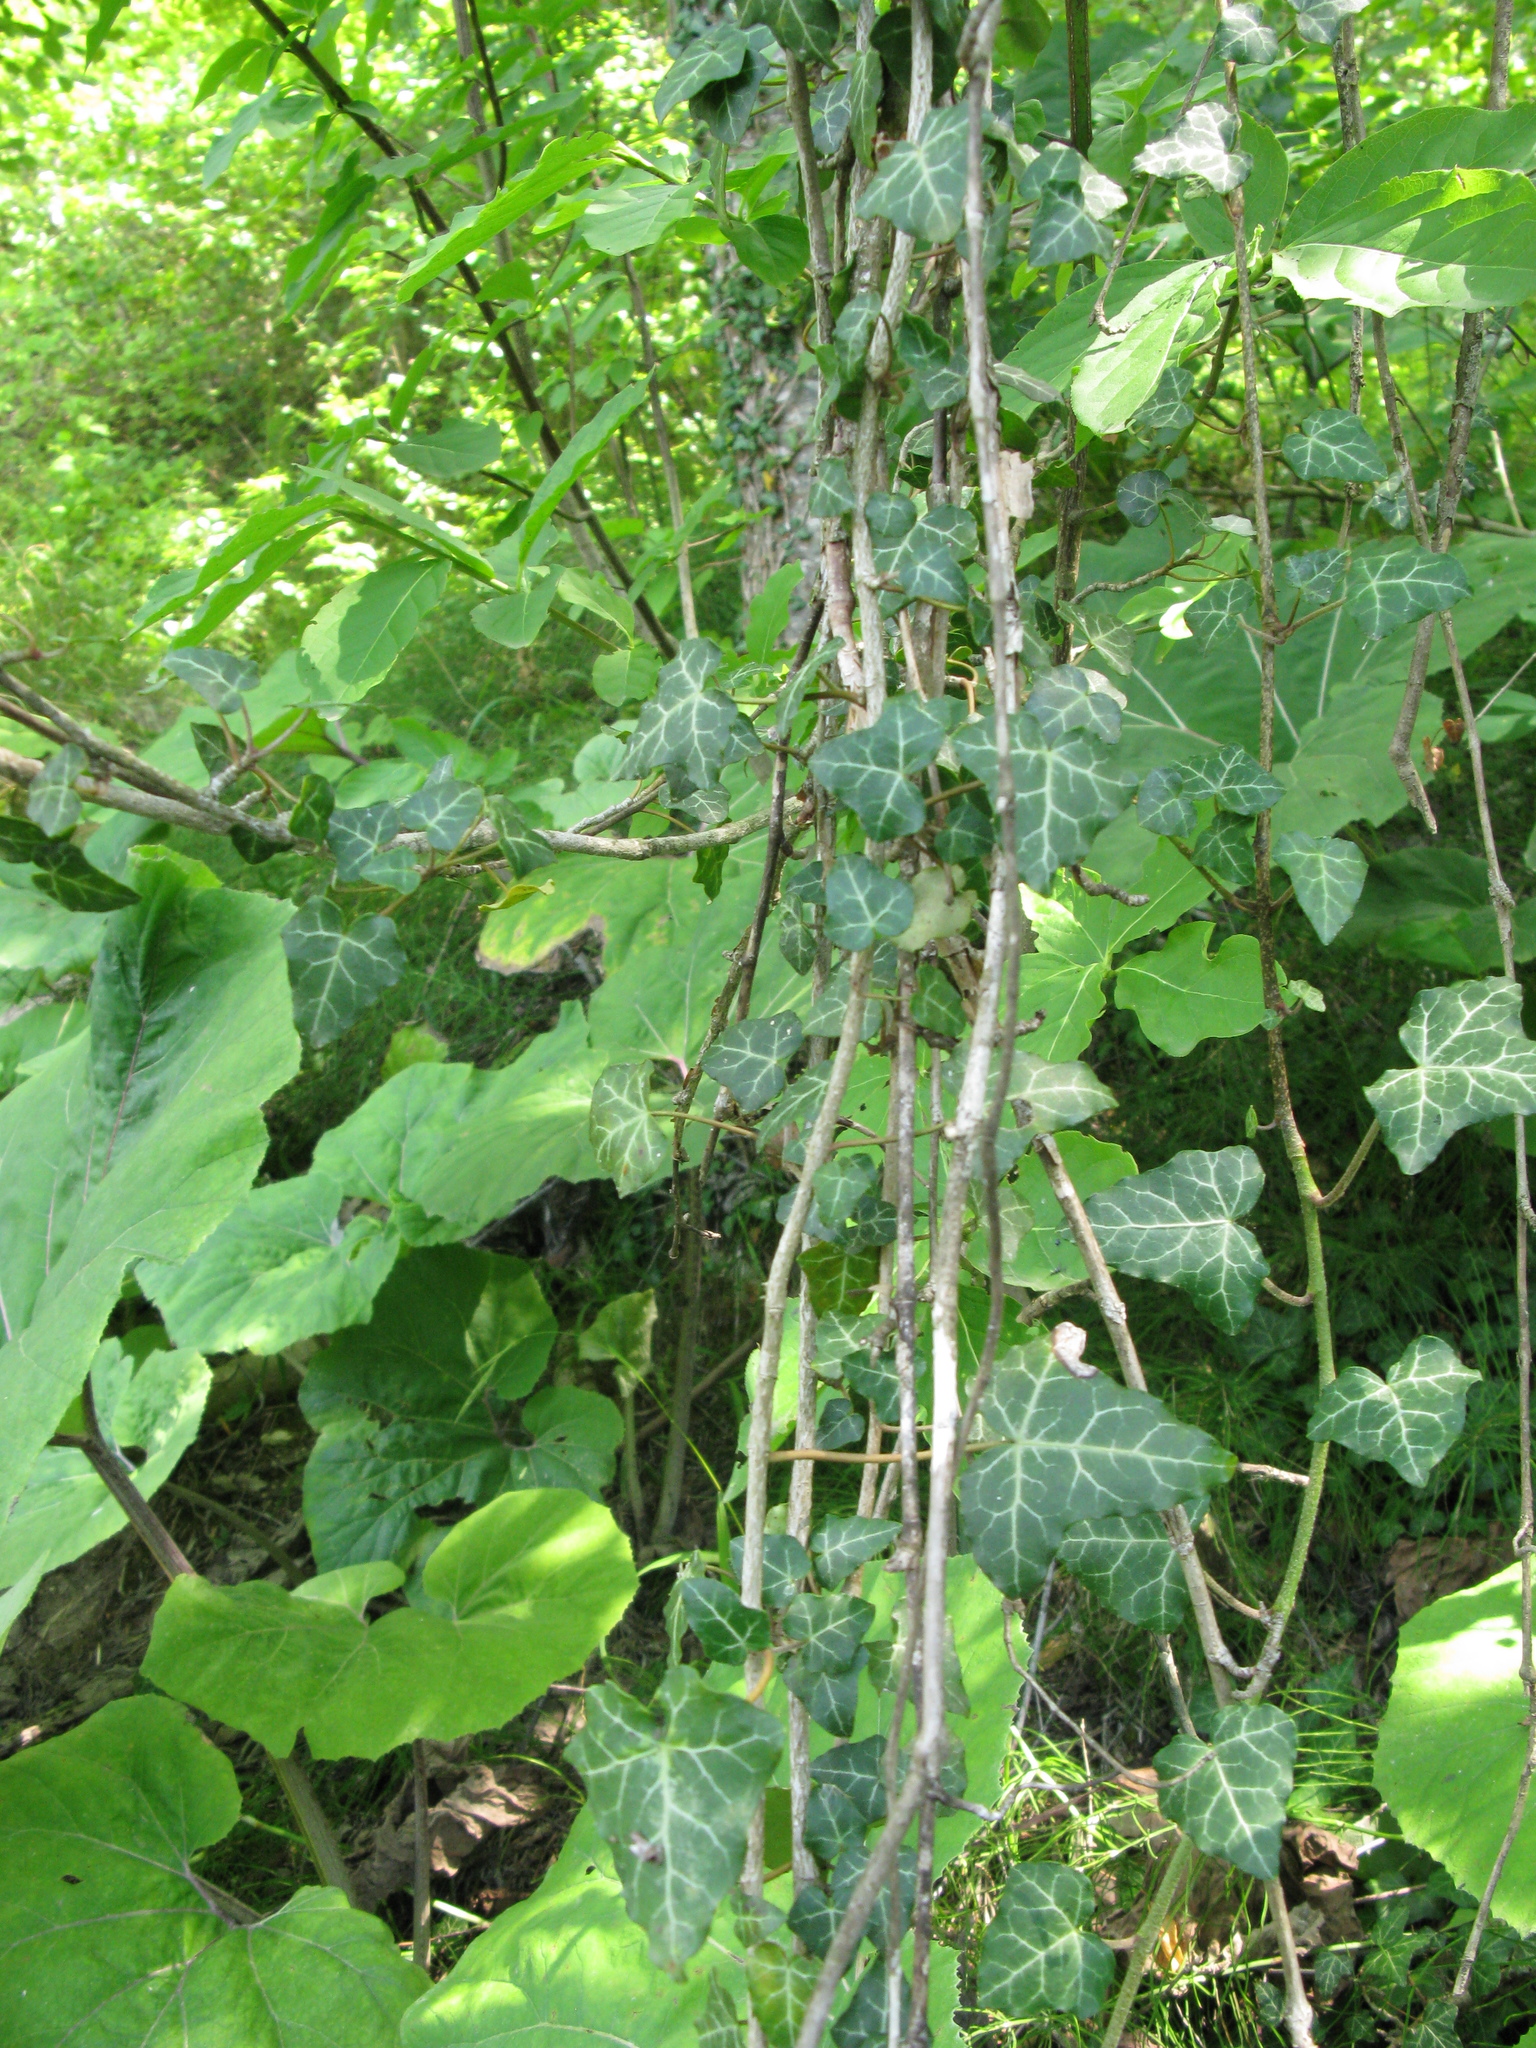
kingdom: Plantae
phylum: Tracheophyta
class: Magnoliopsida
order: Apiales
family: Araliaceae
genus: Hedera
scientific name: Hedera helix
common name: Ivy
